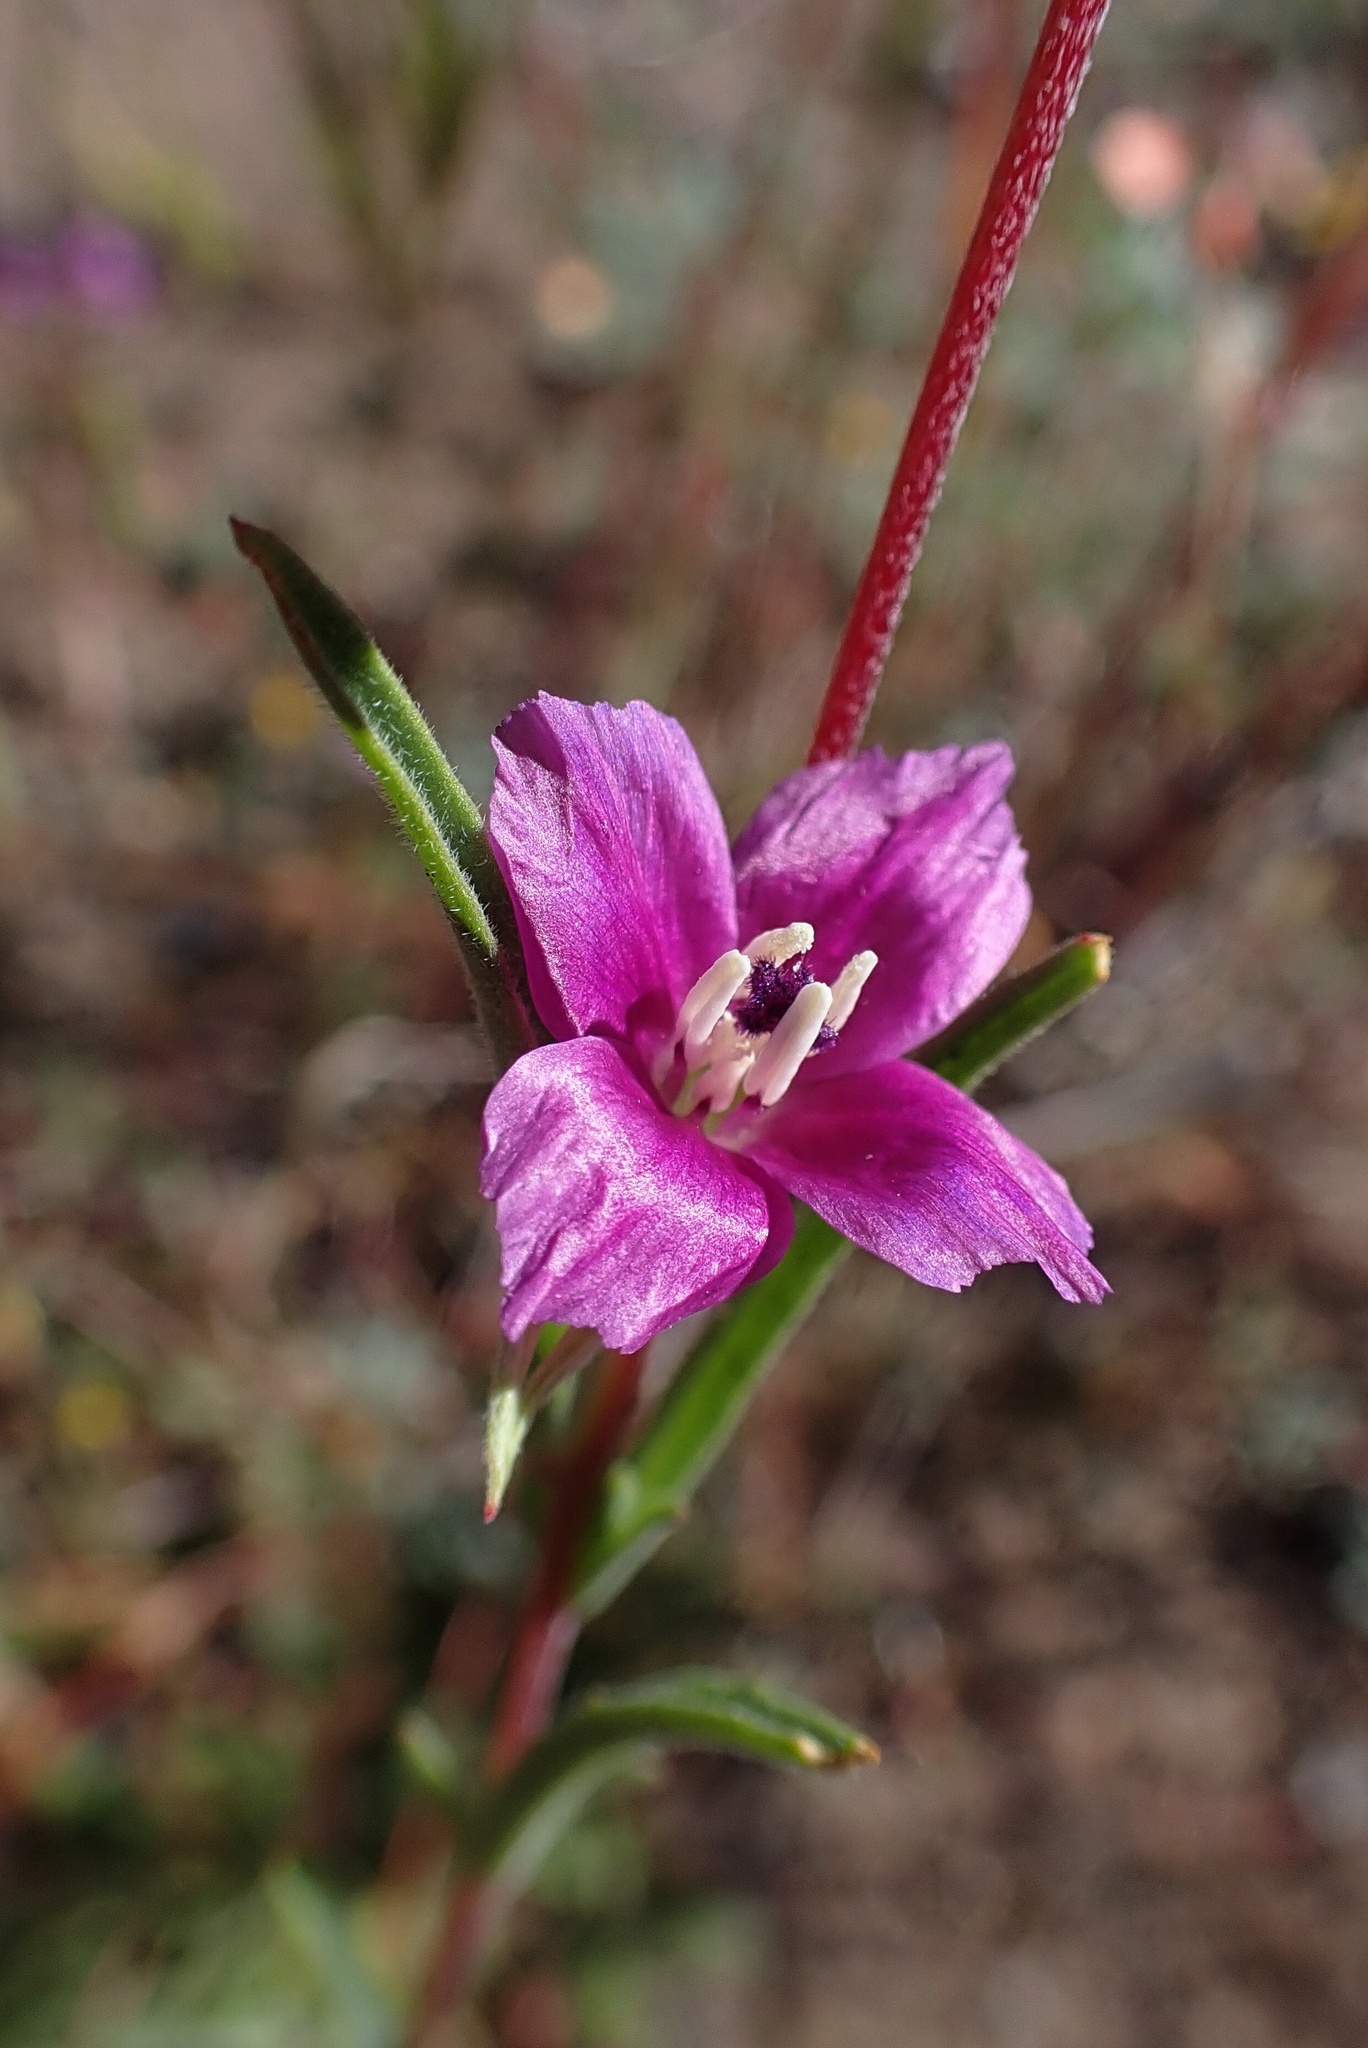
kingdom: Plantae
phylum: Tracheophyta
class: Magnoliopsida
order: Myrtales
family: Onagraceae
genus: Clarkia
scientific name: Clarkia purpurea
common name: Purple clarkia
